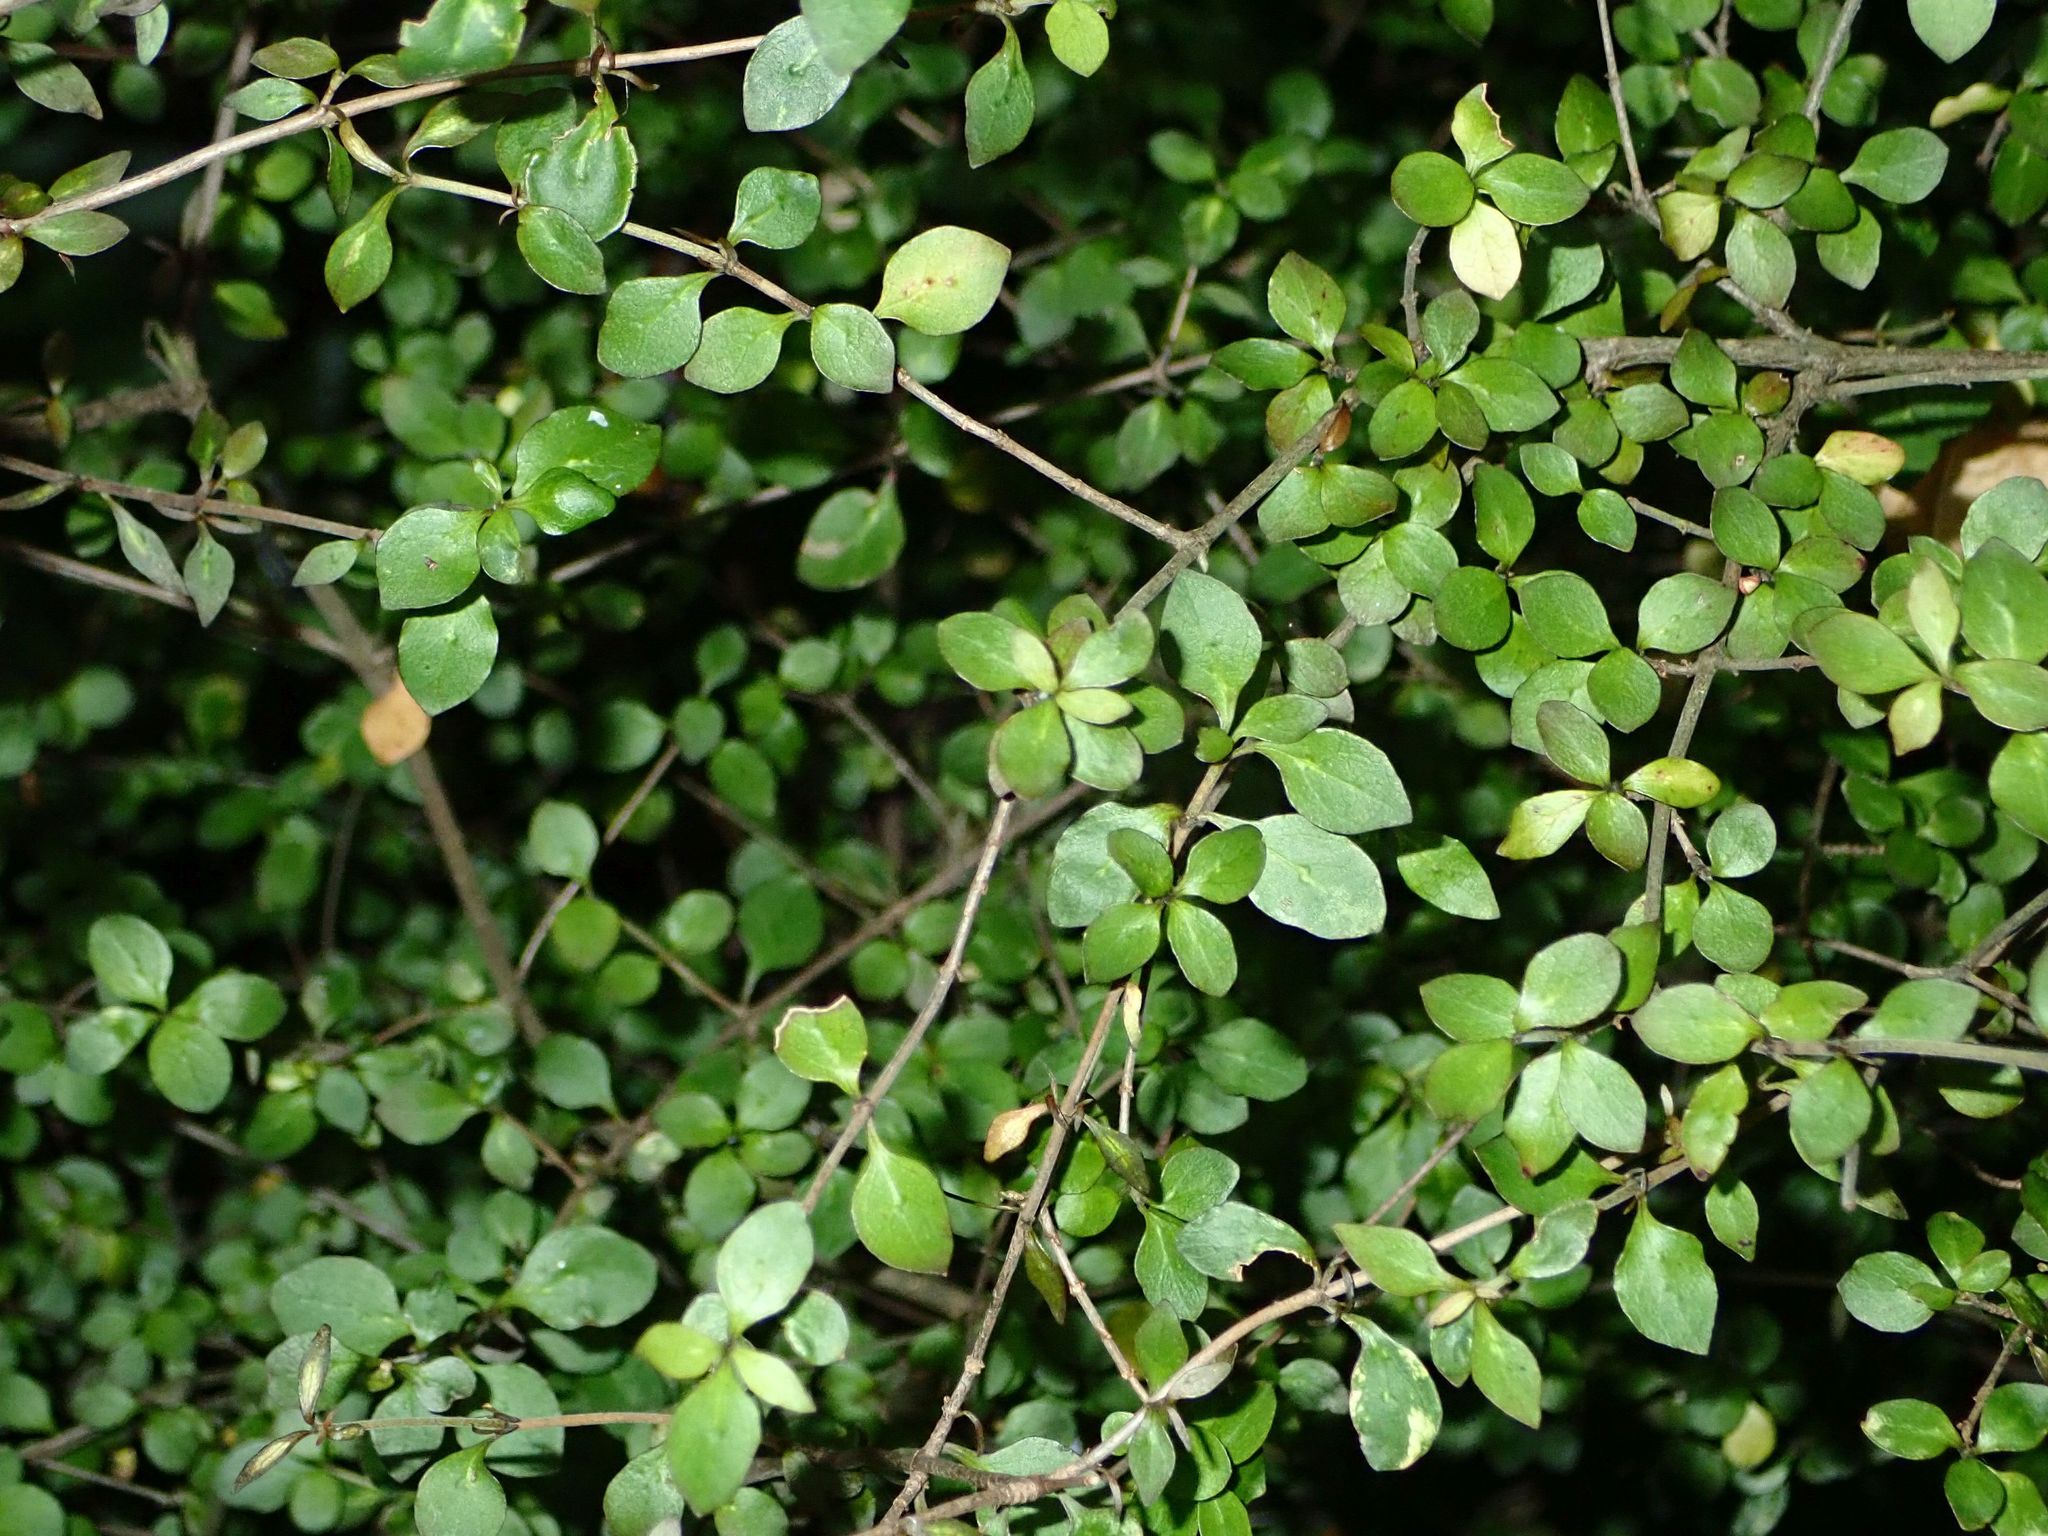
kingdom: Plantae
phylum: Tracheophyta
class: Magnoliopsida
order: Gentianales
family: Rubiaceae
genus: Coprosma
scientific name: Coprosma rhamnoides
